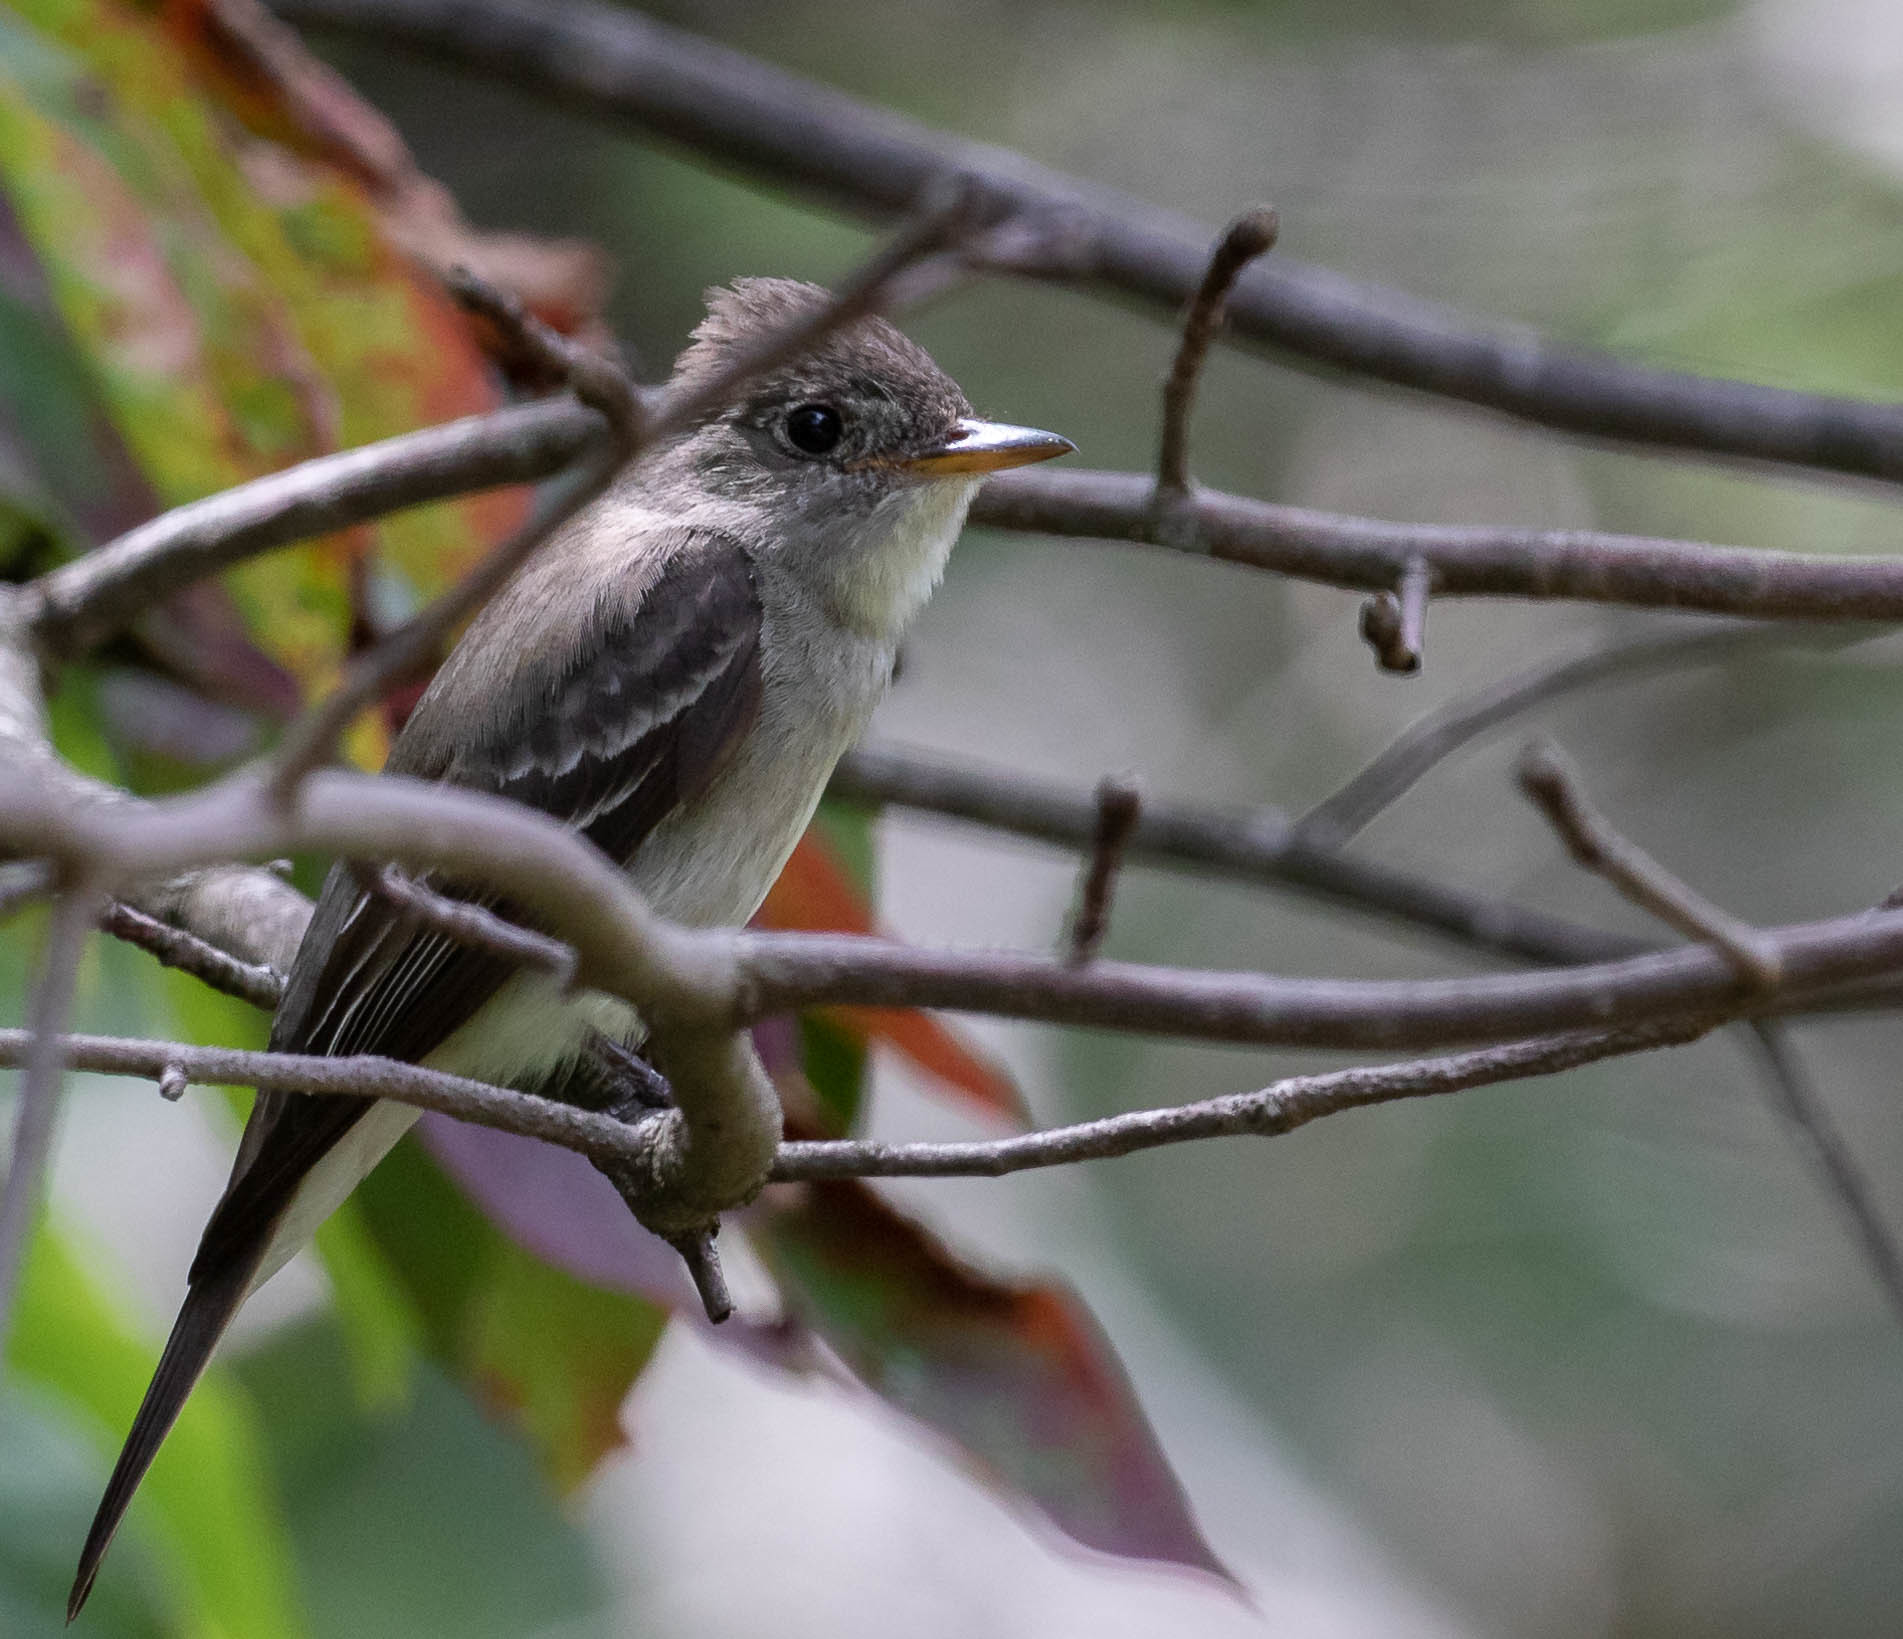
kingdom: Animalia
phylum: Chordata
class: Aves
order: Passeriformes
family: Tyrannidae
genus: Contopus
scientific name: Contopus virens
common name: Eastern wood-pewee
